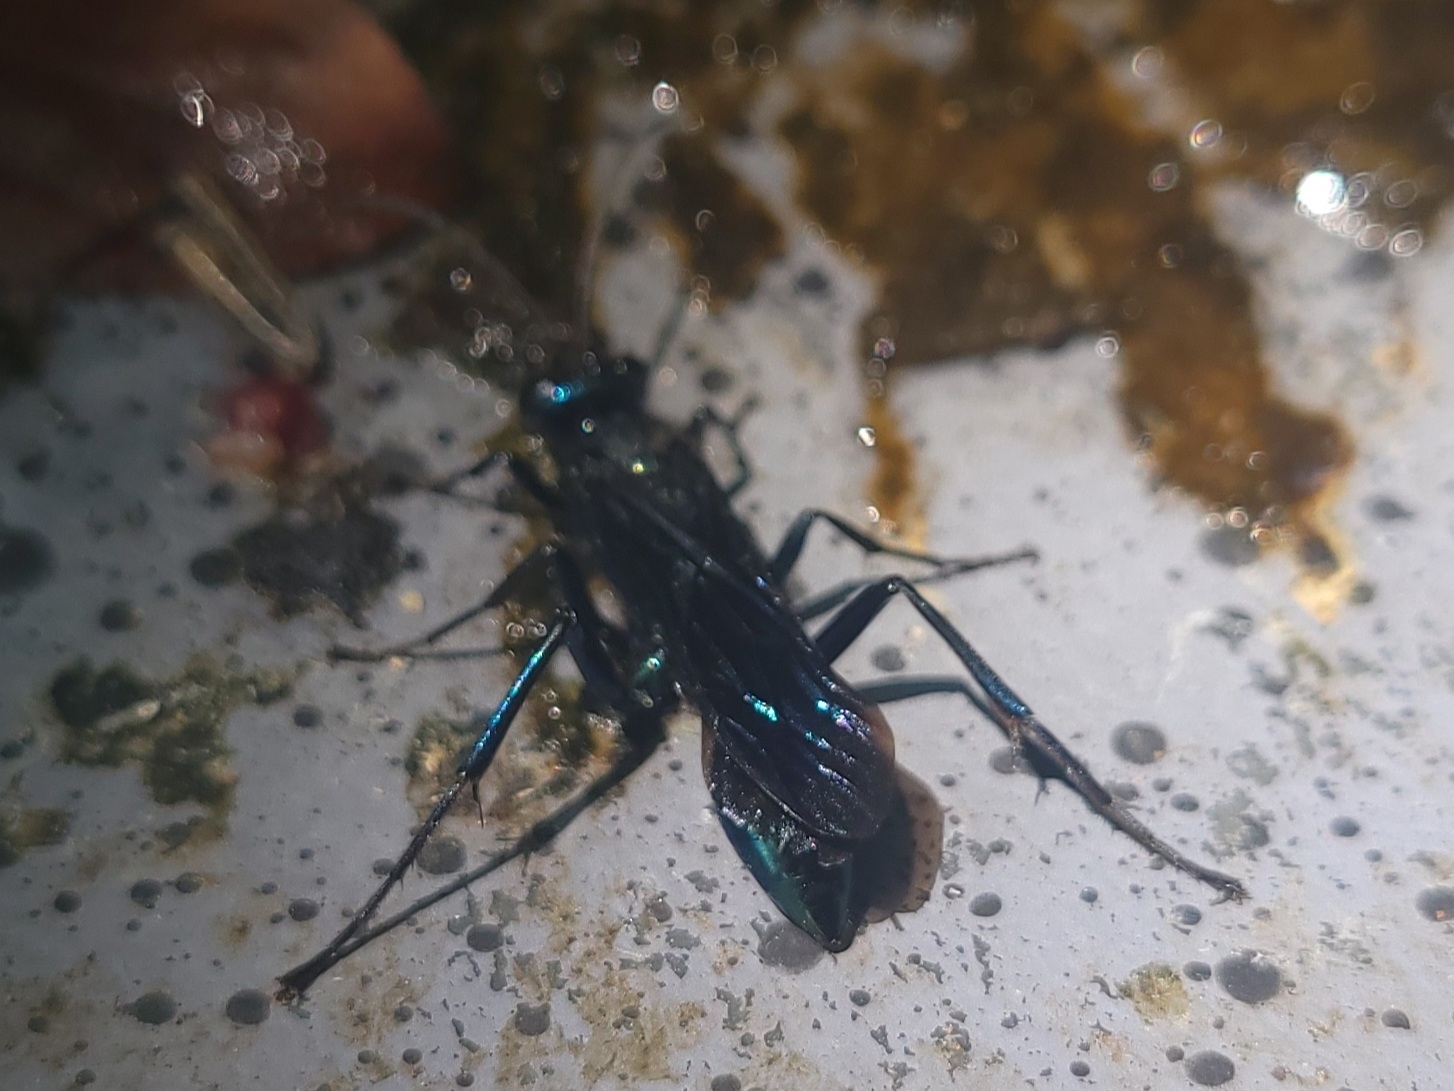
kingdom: Animalia
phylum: Arthropoda
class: Insecta
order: Hymenoptera
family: Sphecidae
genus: Chalybion
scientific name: Chalybion californicum
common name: Mud dauber
